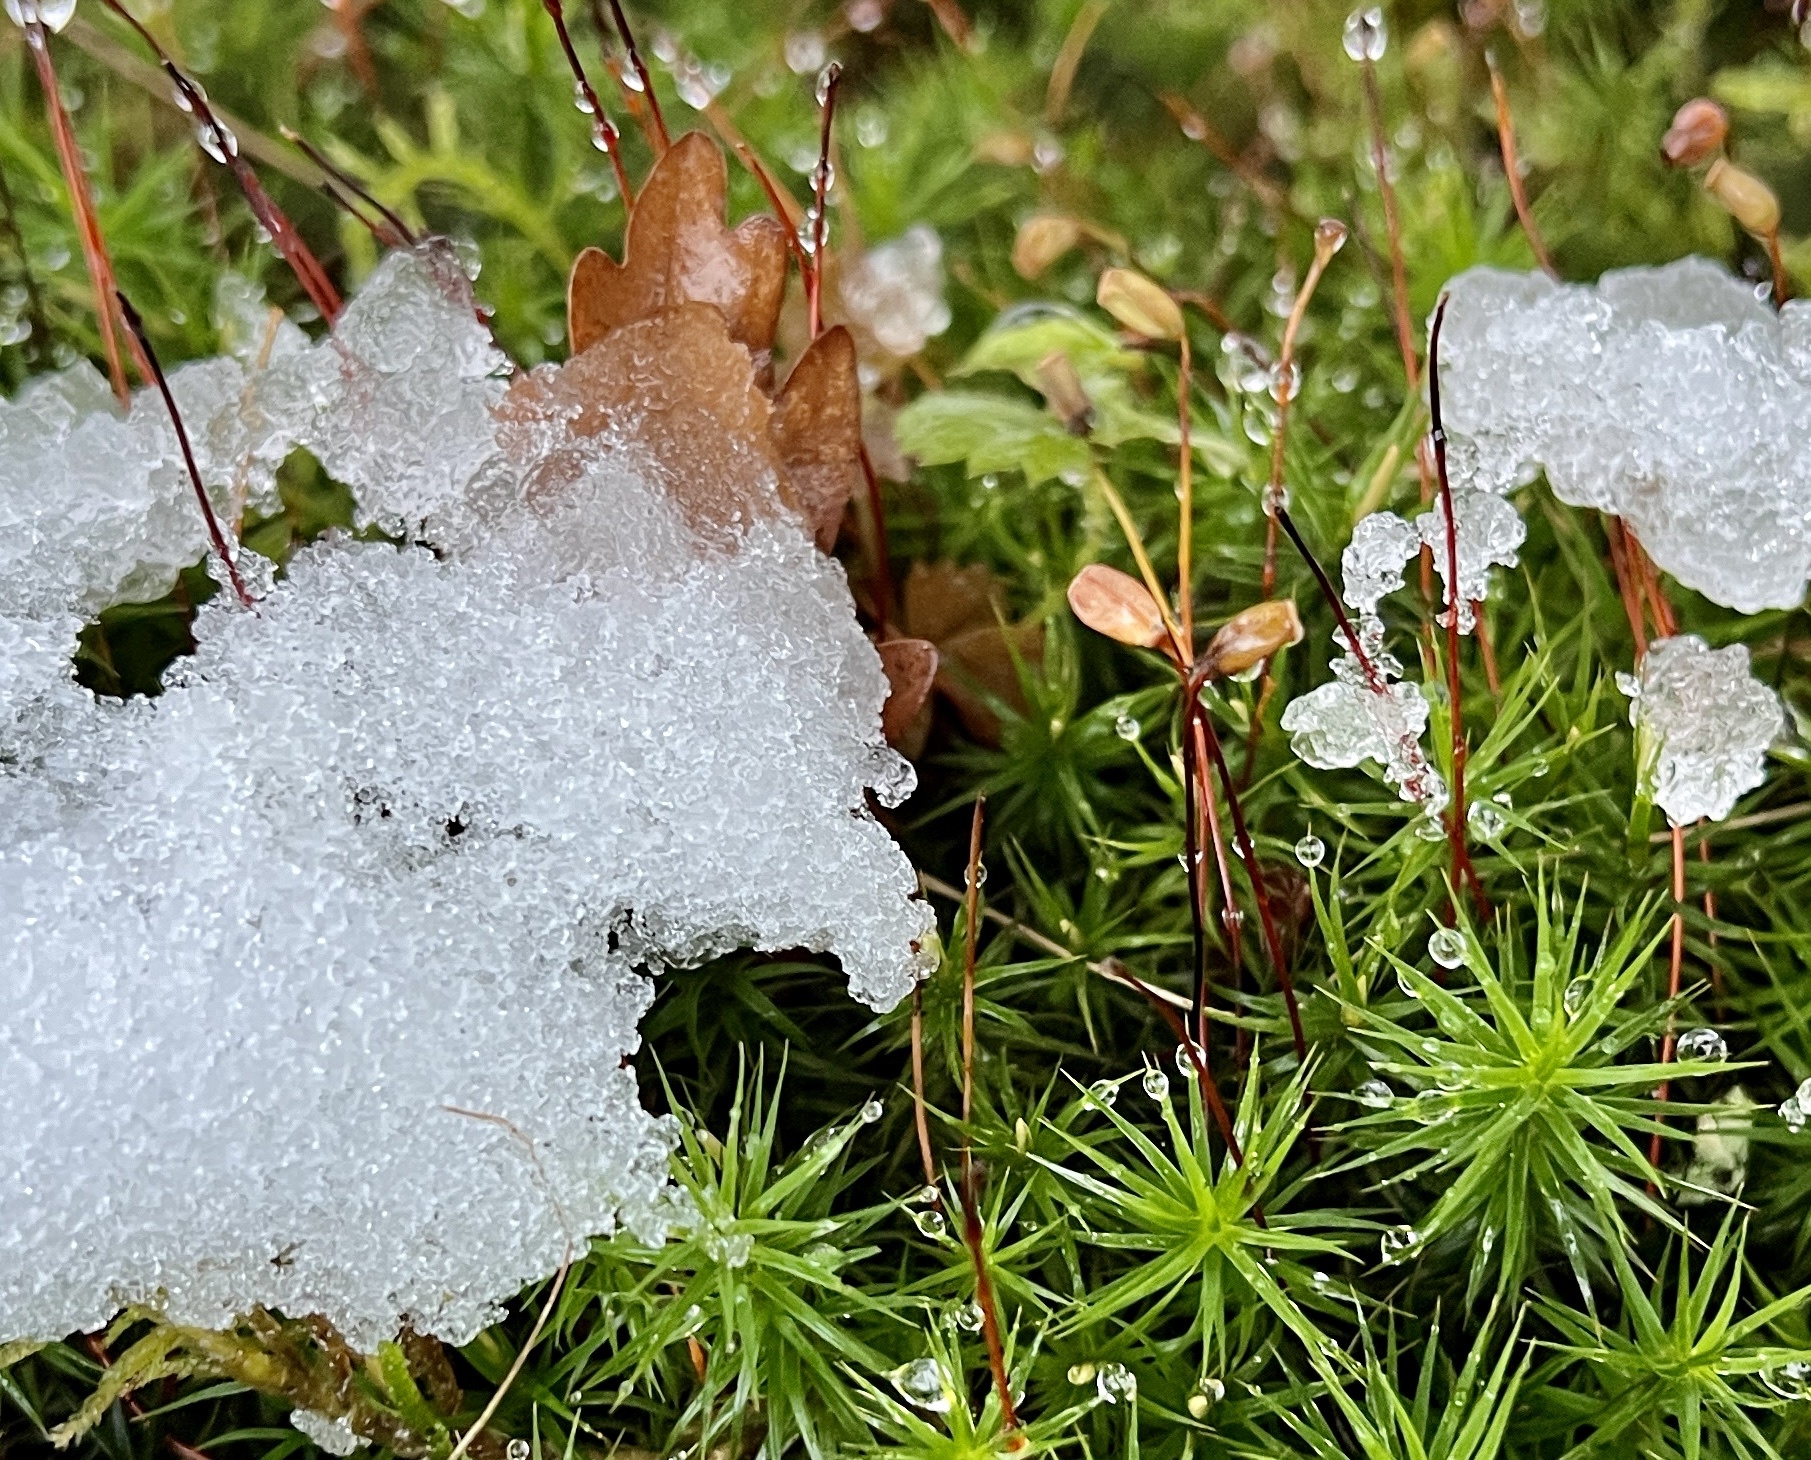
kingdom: Plantae
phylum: Bryophyta
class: Polytrichopsida
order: Polytrichales
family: Polytrichaceae
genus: Polytrichum
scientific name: Polytrichum formosum
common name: Bank haircap moss
